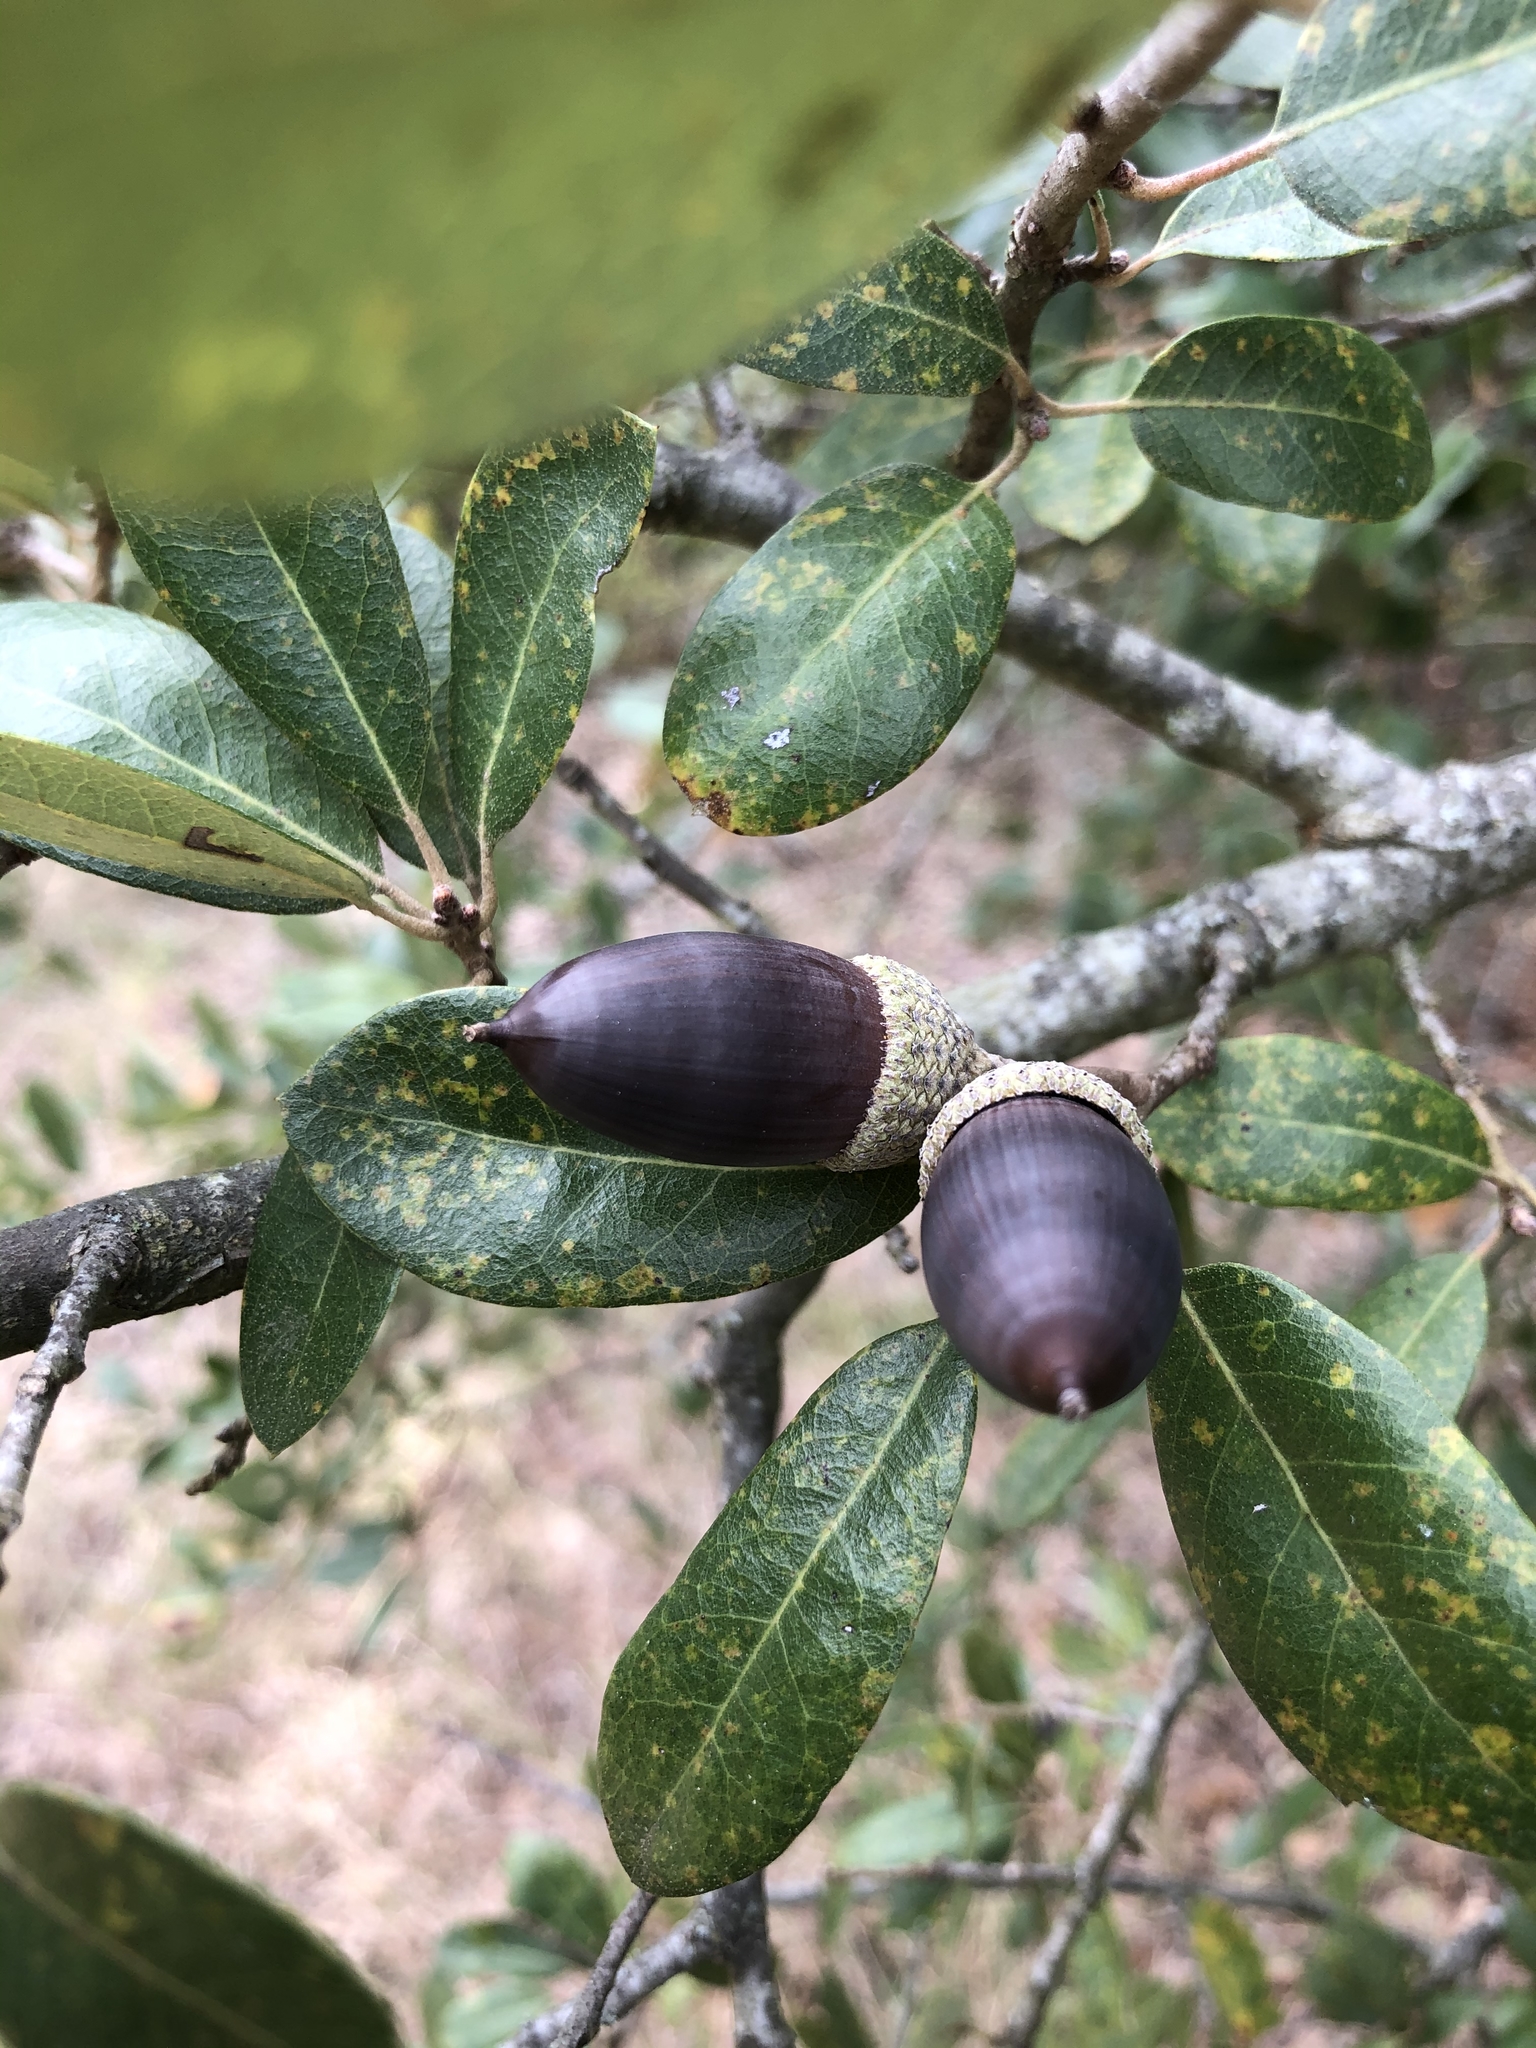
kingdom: Plantae
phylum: Tracheophyta
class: Magnoliopsida
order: Fagales
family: Fagaceae
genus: Quercus
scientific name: Quercus fusiformis
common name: Texas live oak
